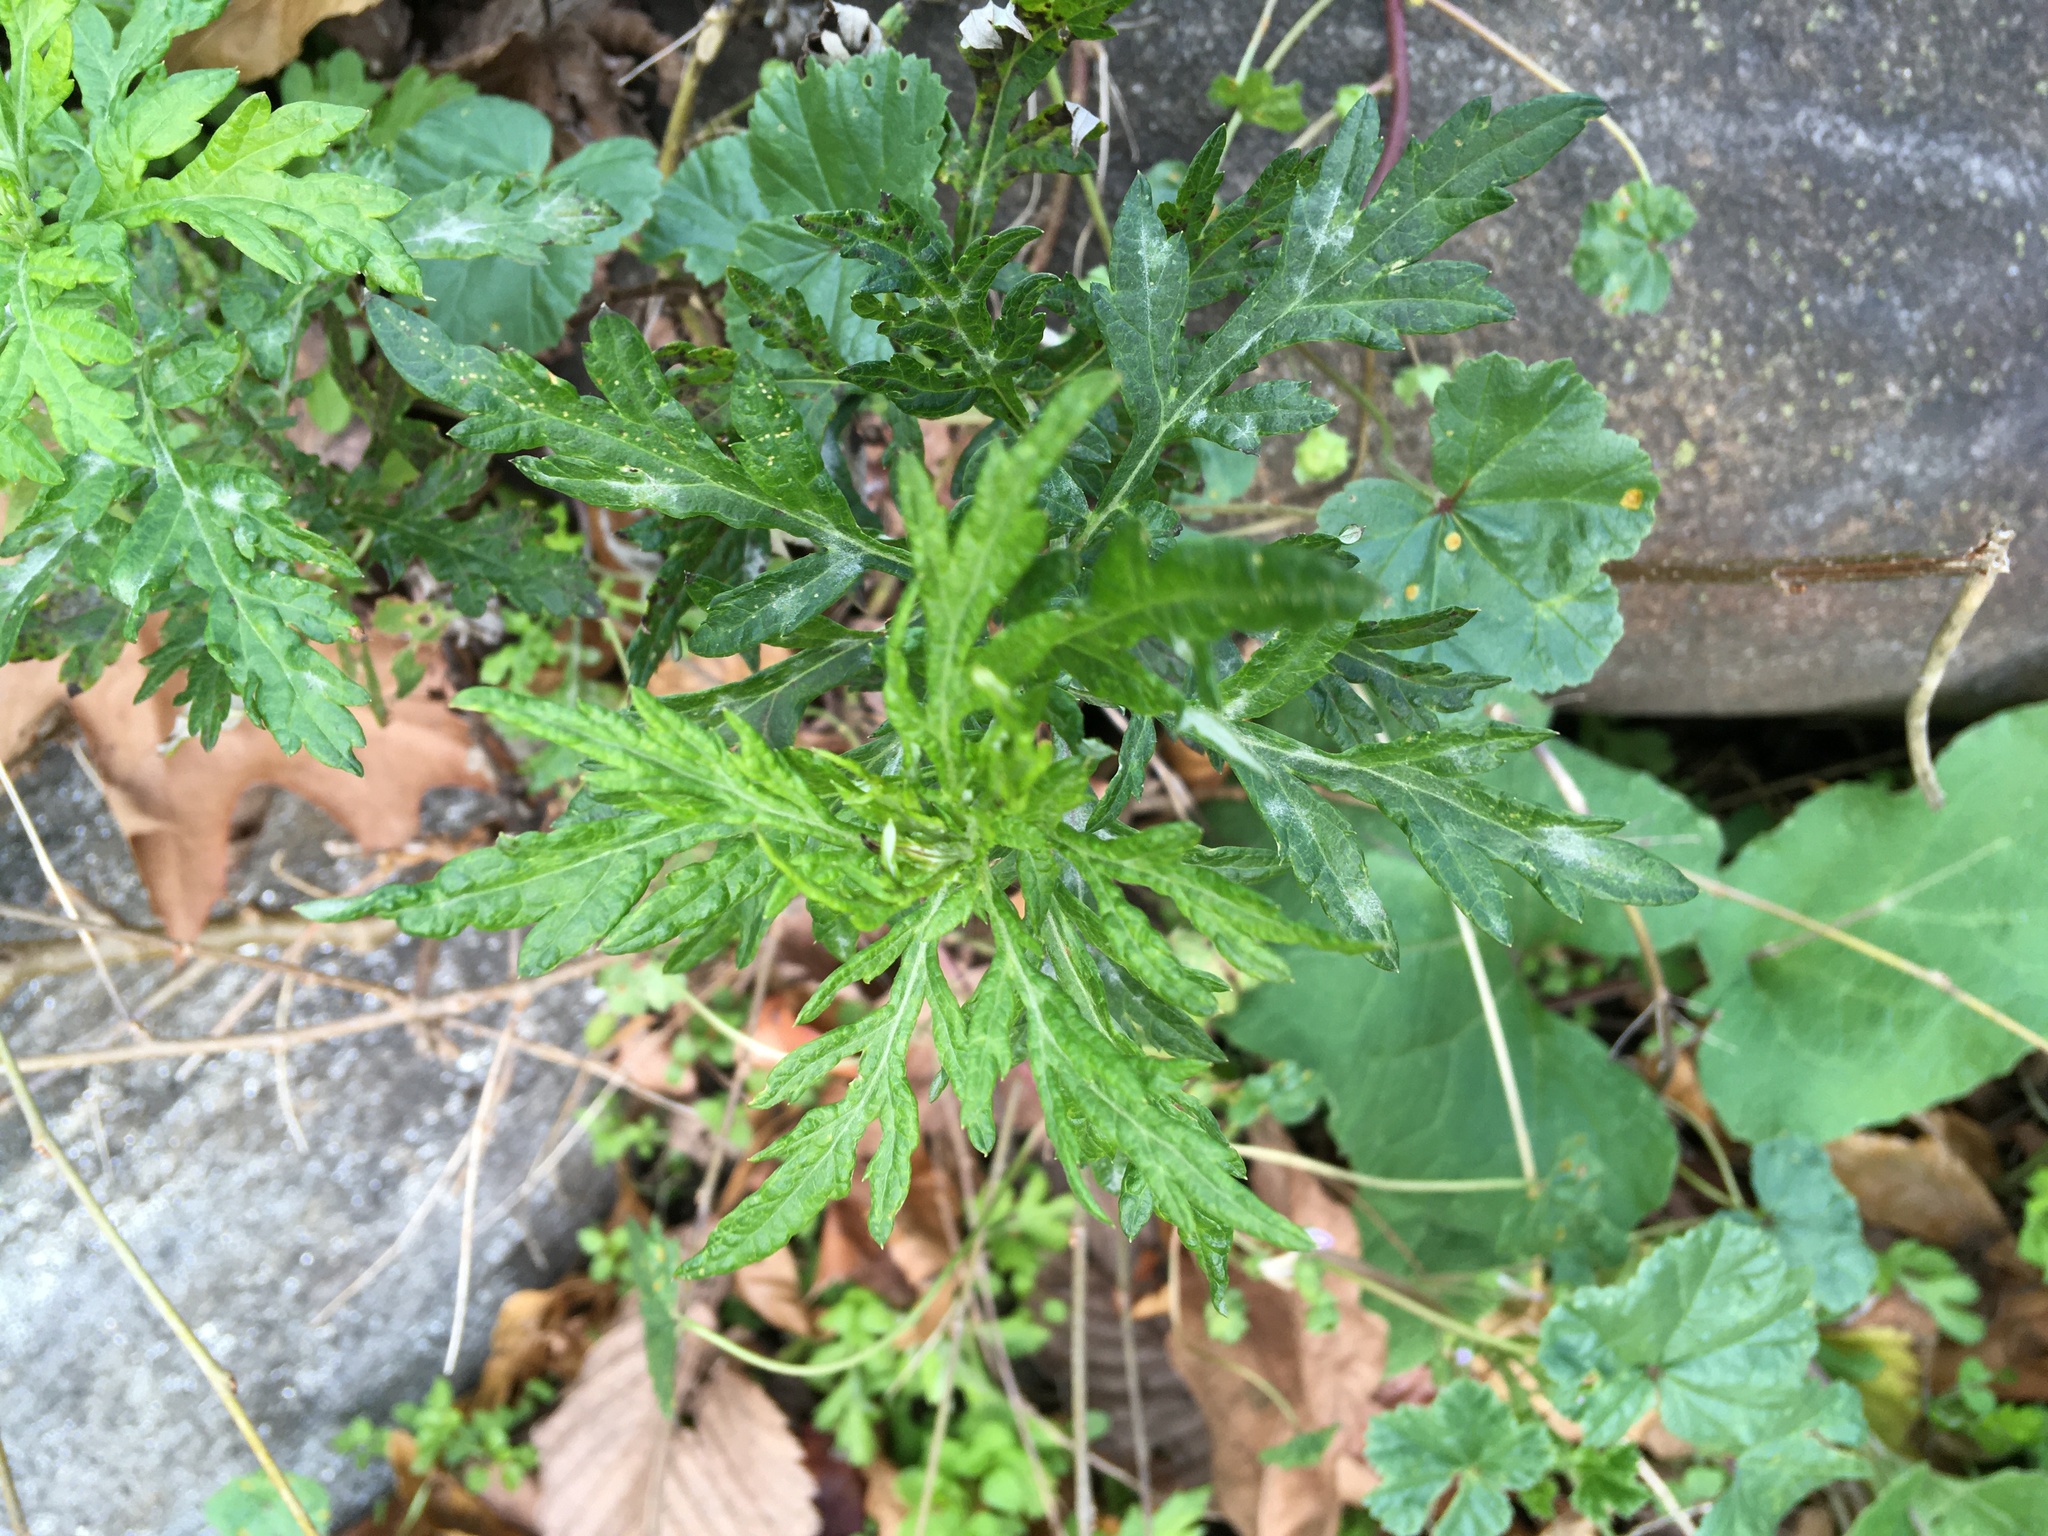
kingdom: Plantae
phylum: Tracheophyta
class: Magnoliopsida
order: Asterales
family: Asteraceae
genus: Artemisia
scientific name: Artemisia vulgaris
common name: Mugwort
